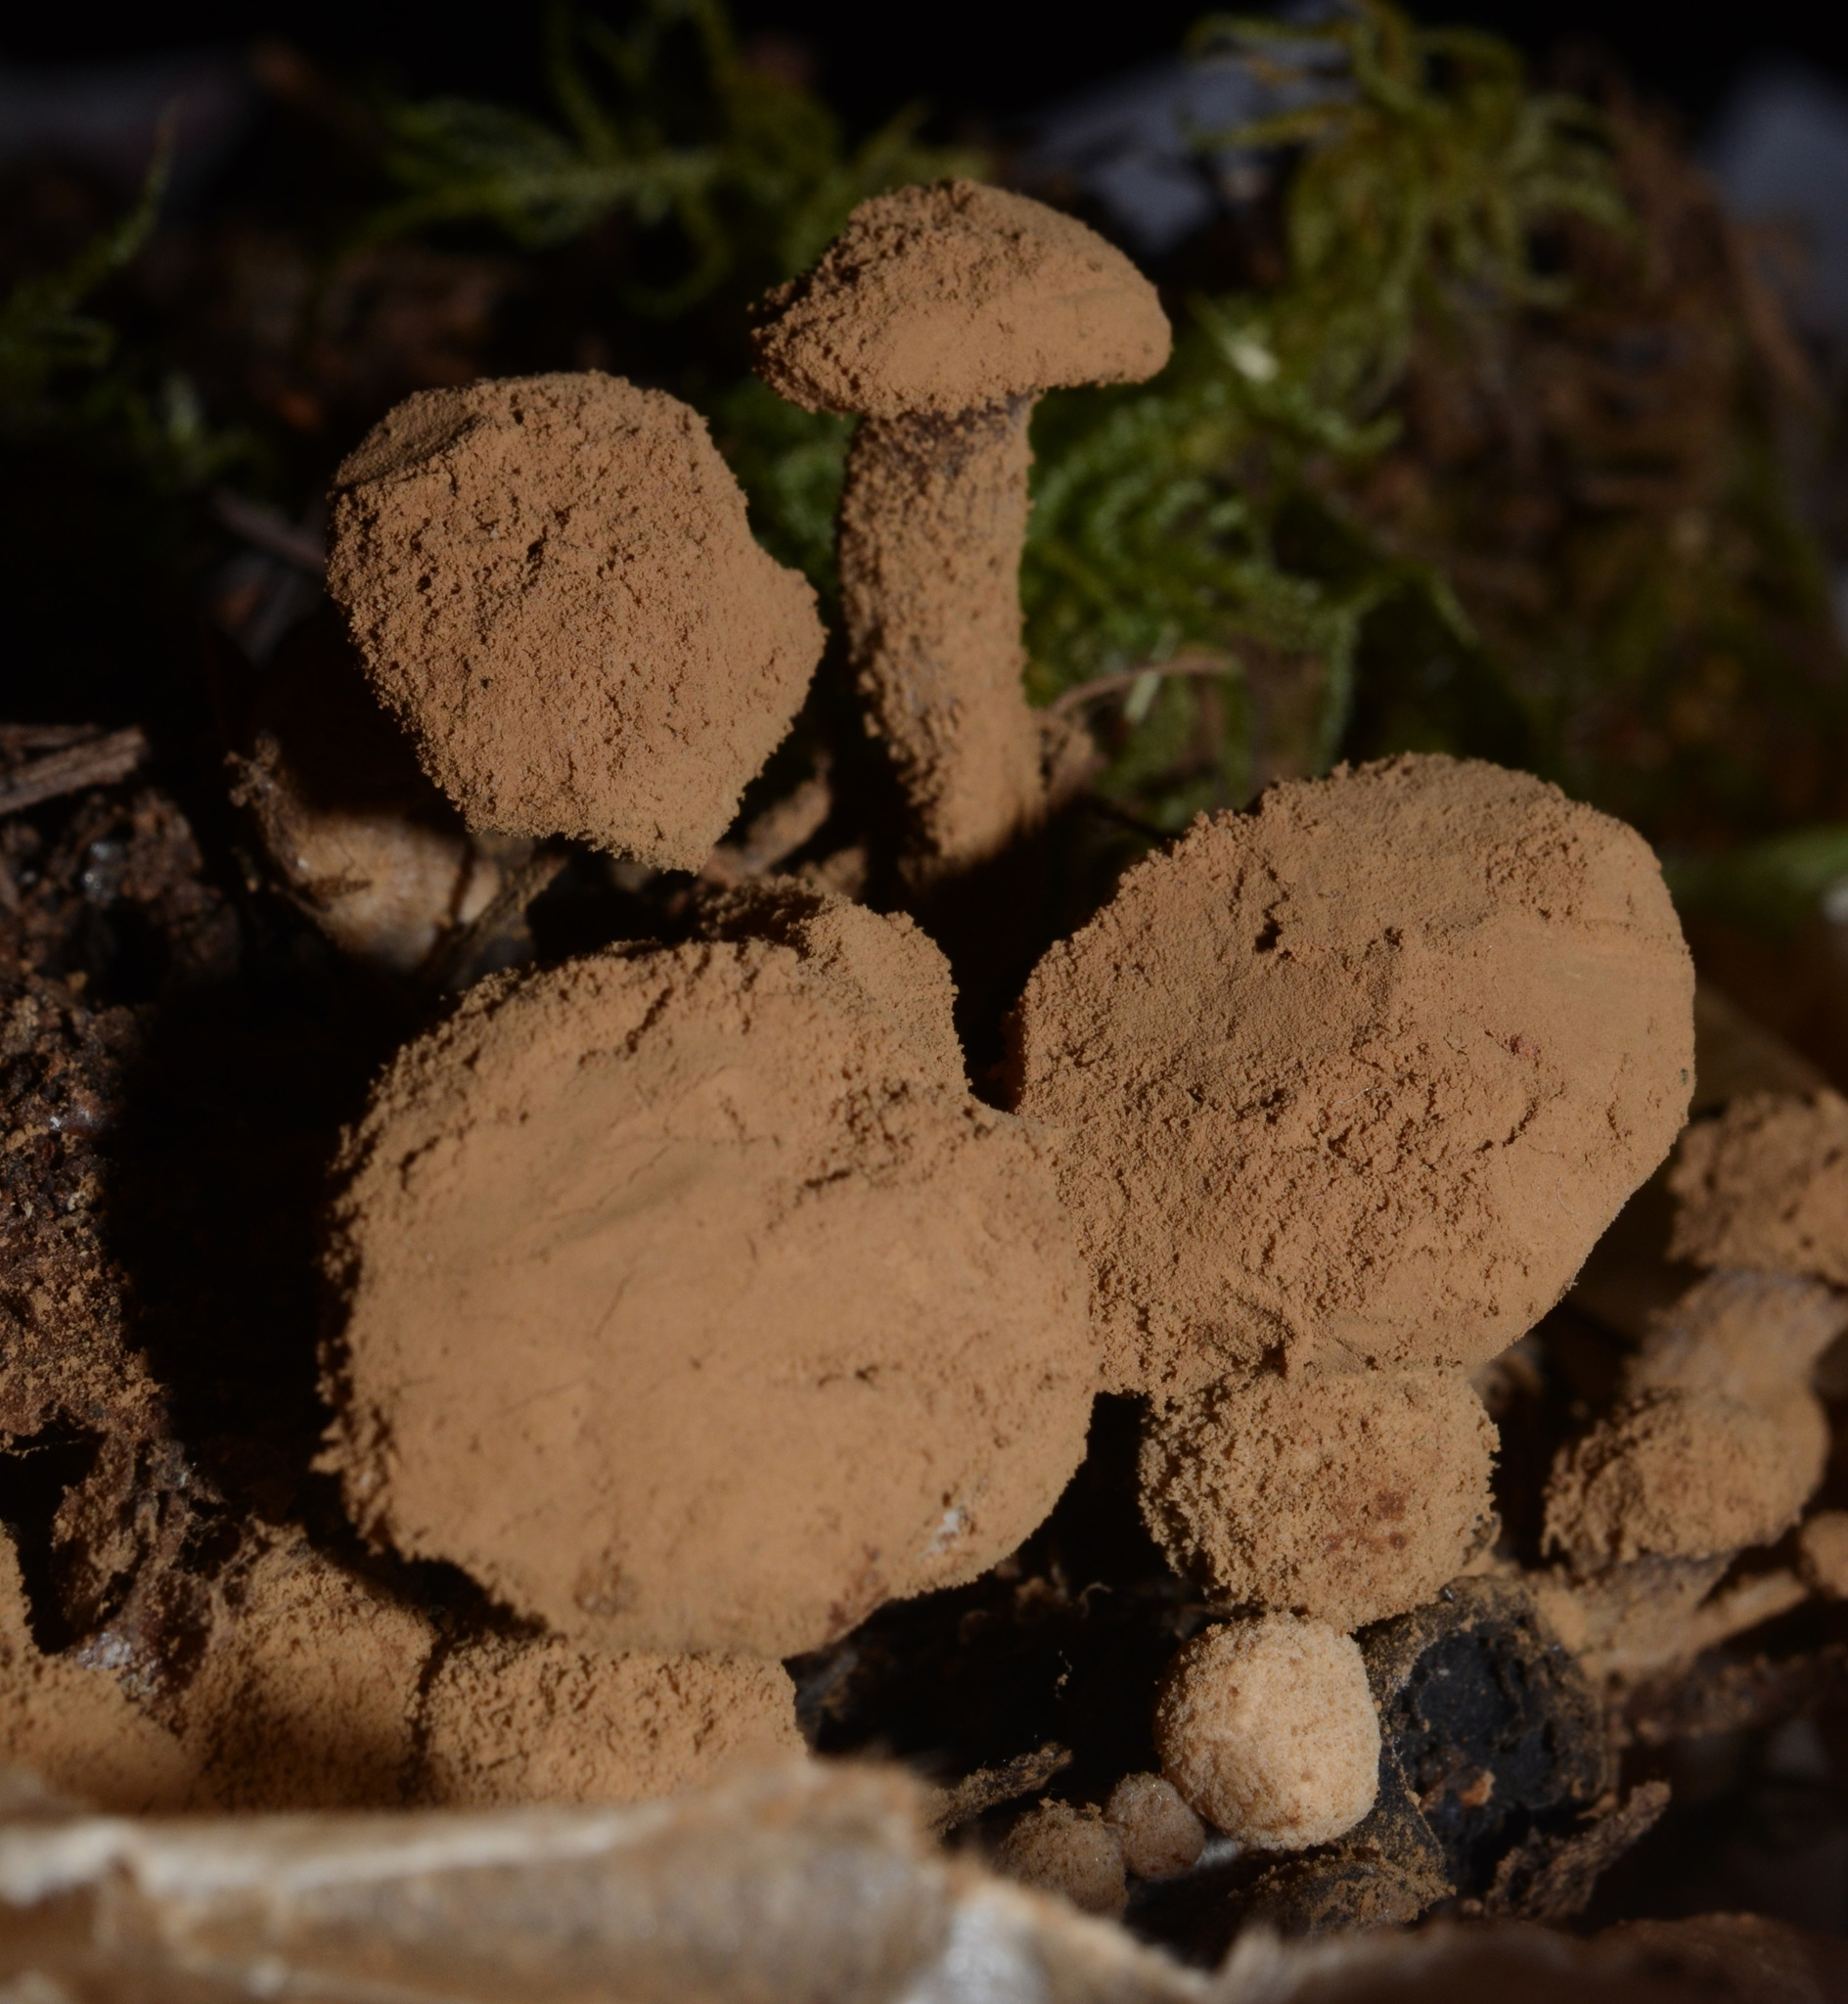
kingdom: Fungi
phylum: Basidiomycota
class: Agaricomycetes
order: Agaricales
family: Lyophyllaceae
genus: Asterophora
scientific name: Asterophora lycoperdoides
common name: Pick-a-back toadstool
